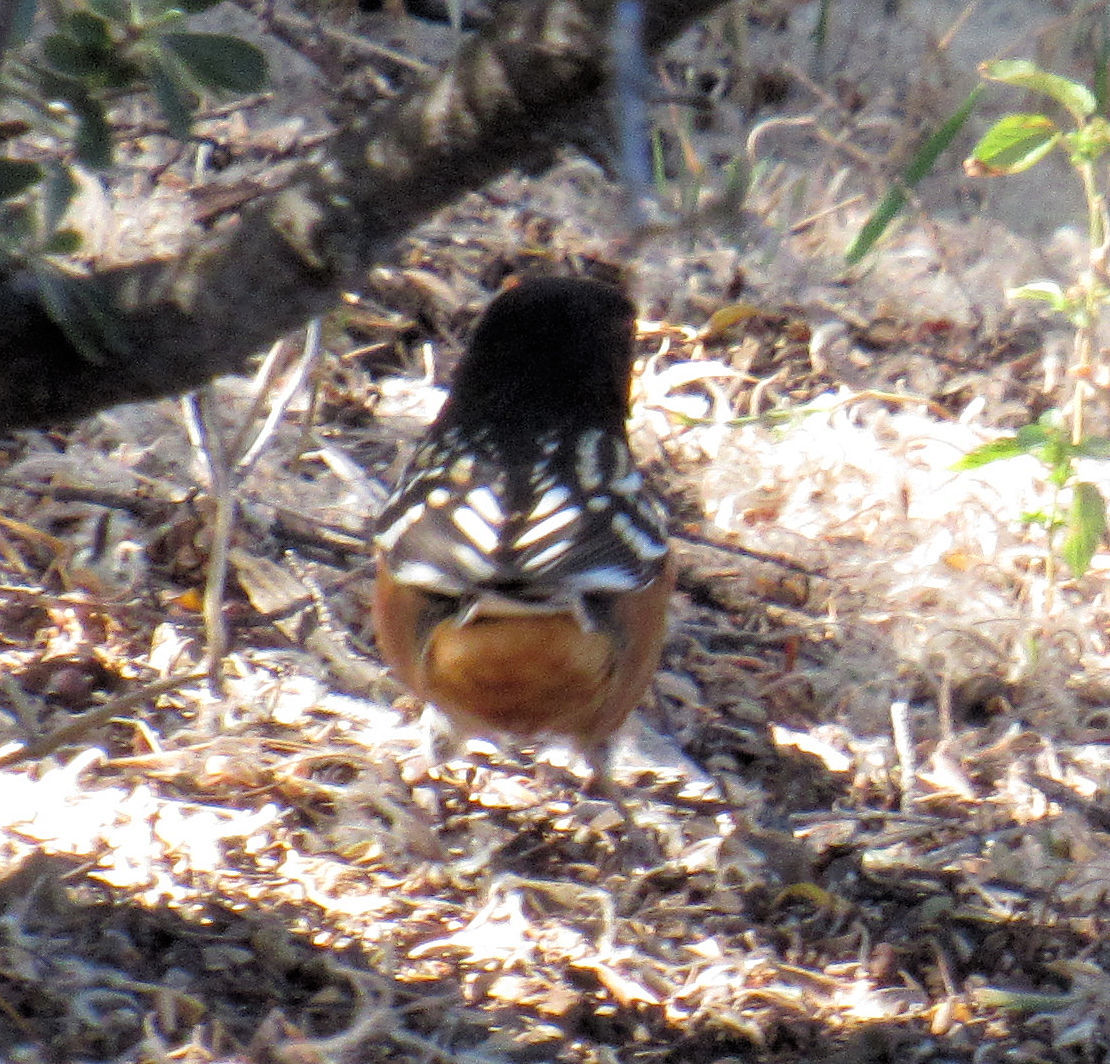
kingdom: Animalia
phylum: Chordata
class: Aves
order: Passeriformes
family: Passerellidae
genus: Pipilo
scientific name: Pipilo maculatus
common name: Spotted towhee
